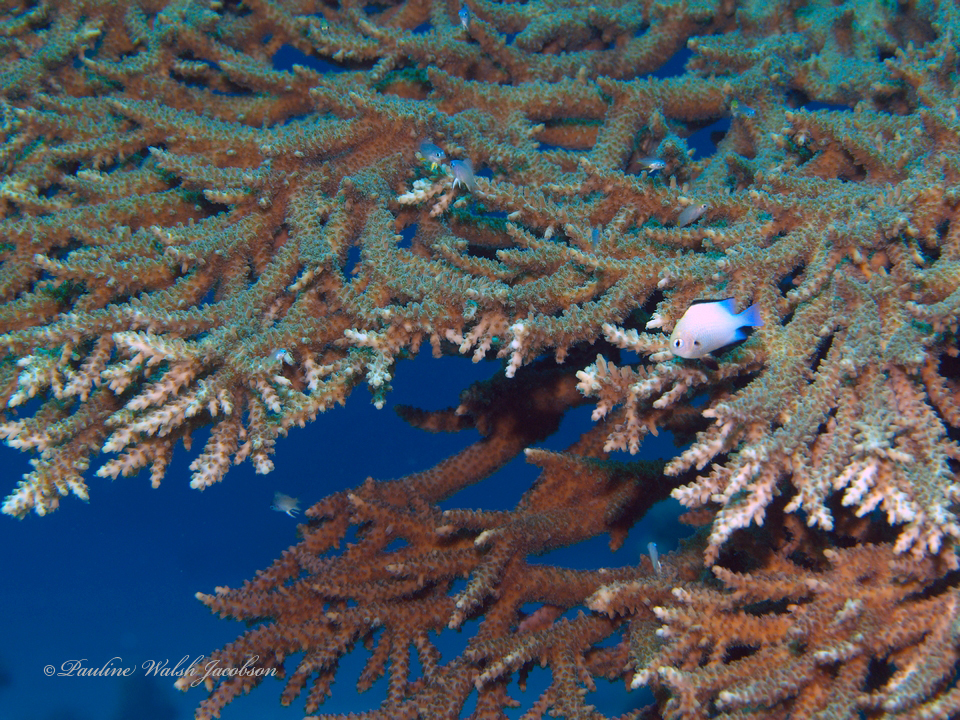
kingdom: Animalia
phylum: Chordata
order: Perciformes
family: Pomacentridae
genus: Dascyllus
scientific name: Dascyllus marginatus
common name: Red sea dascyllus
